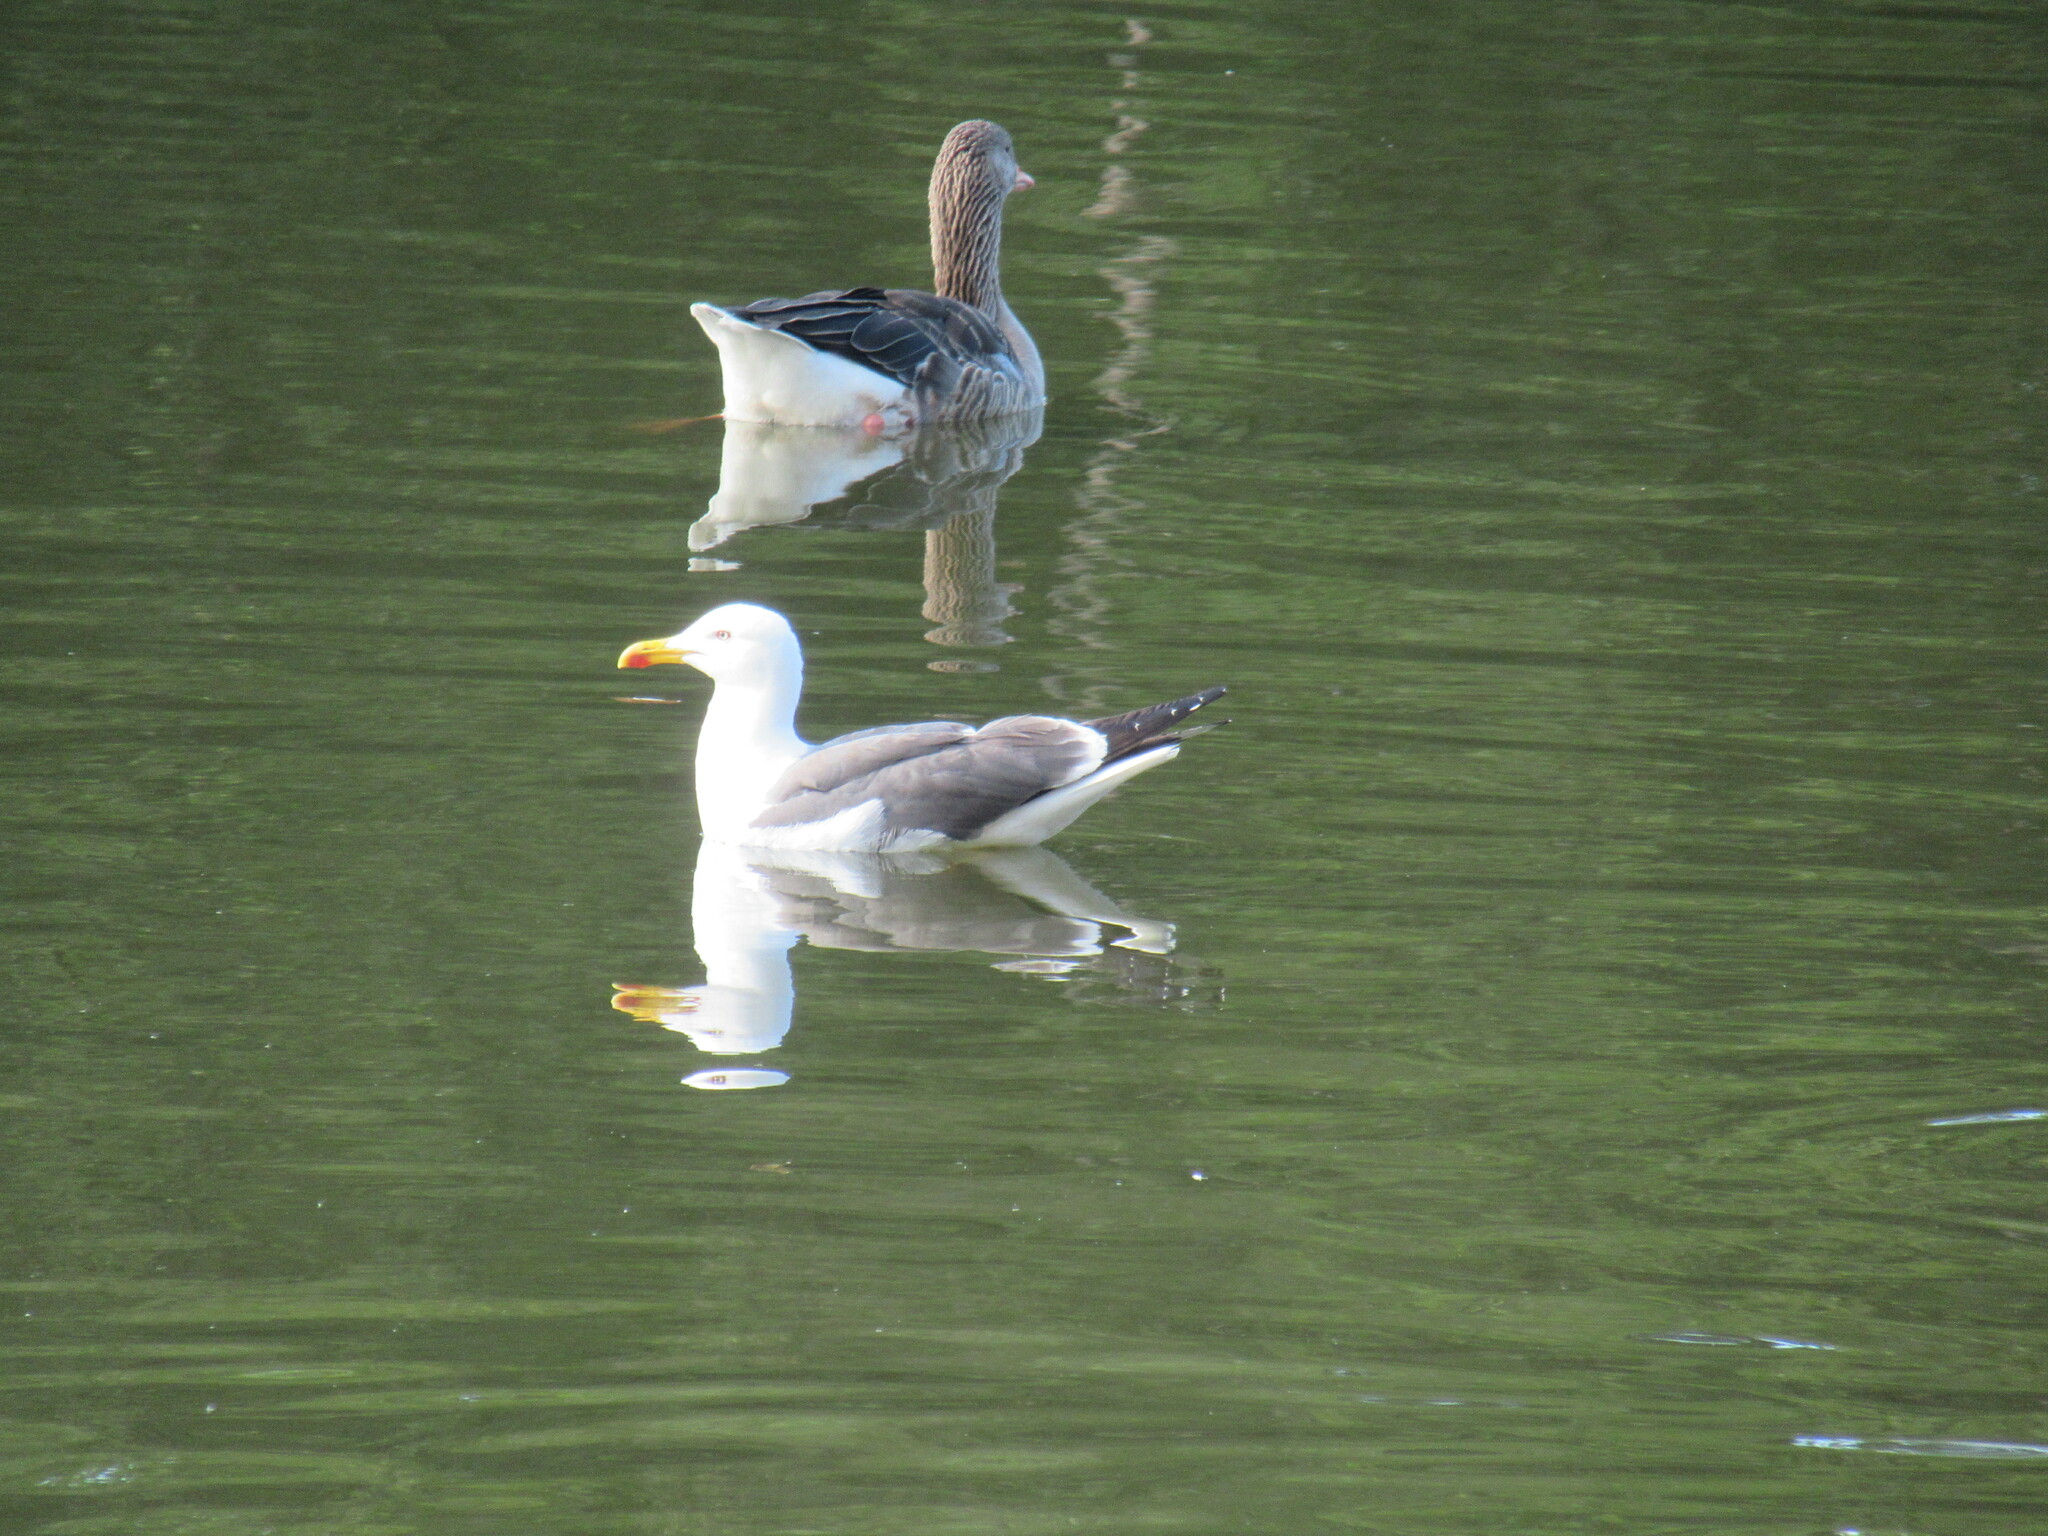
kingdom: Animalia
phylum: Chordata
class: Aves
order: Charadriiformes
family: Laridae
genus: Larus
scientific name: Larus fuscus
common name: Lesser black-backed gull
